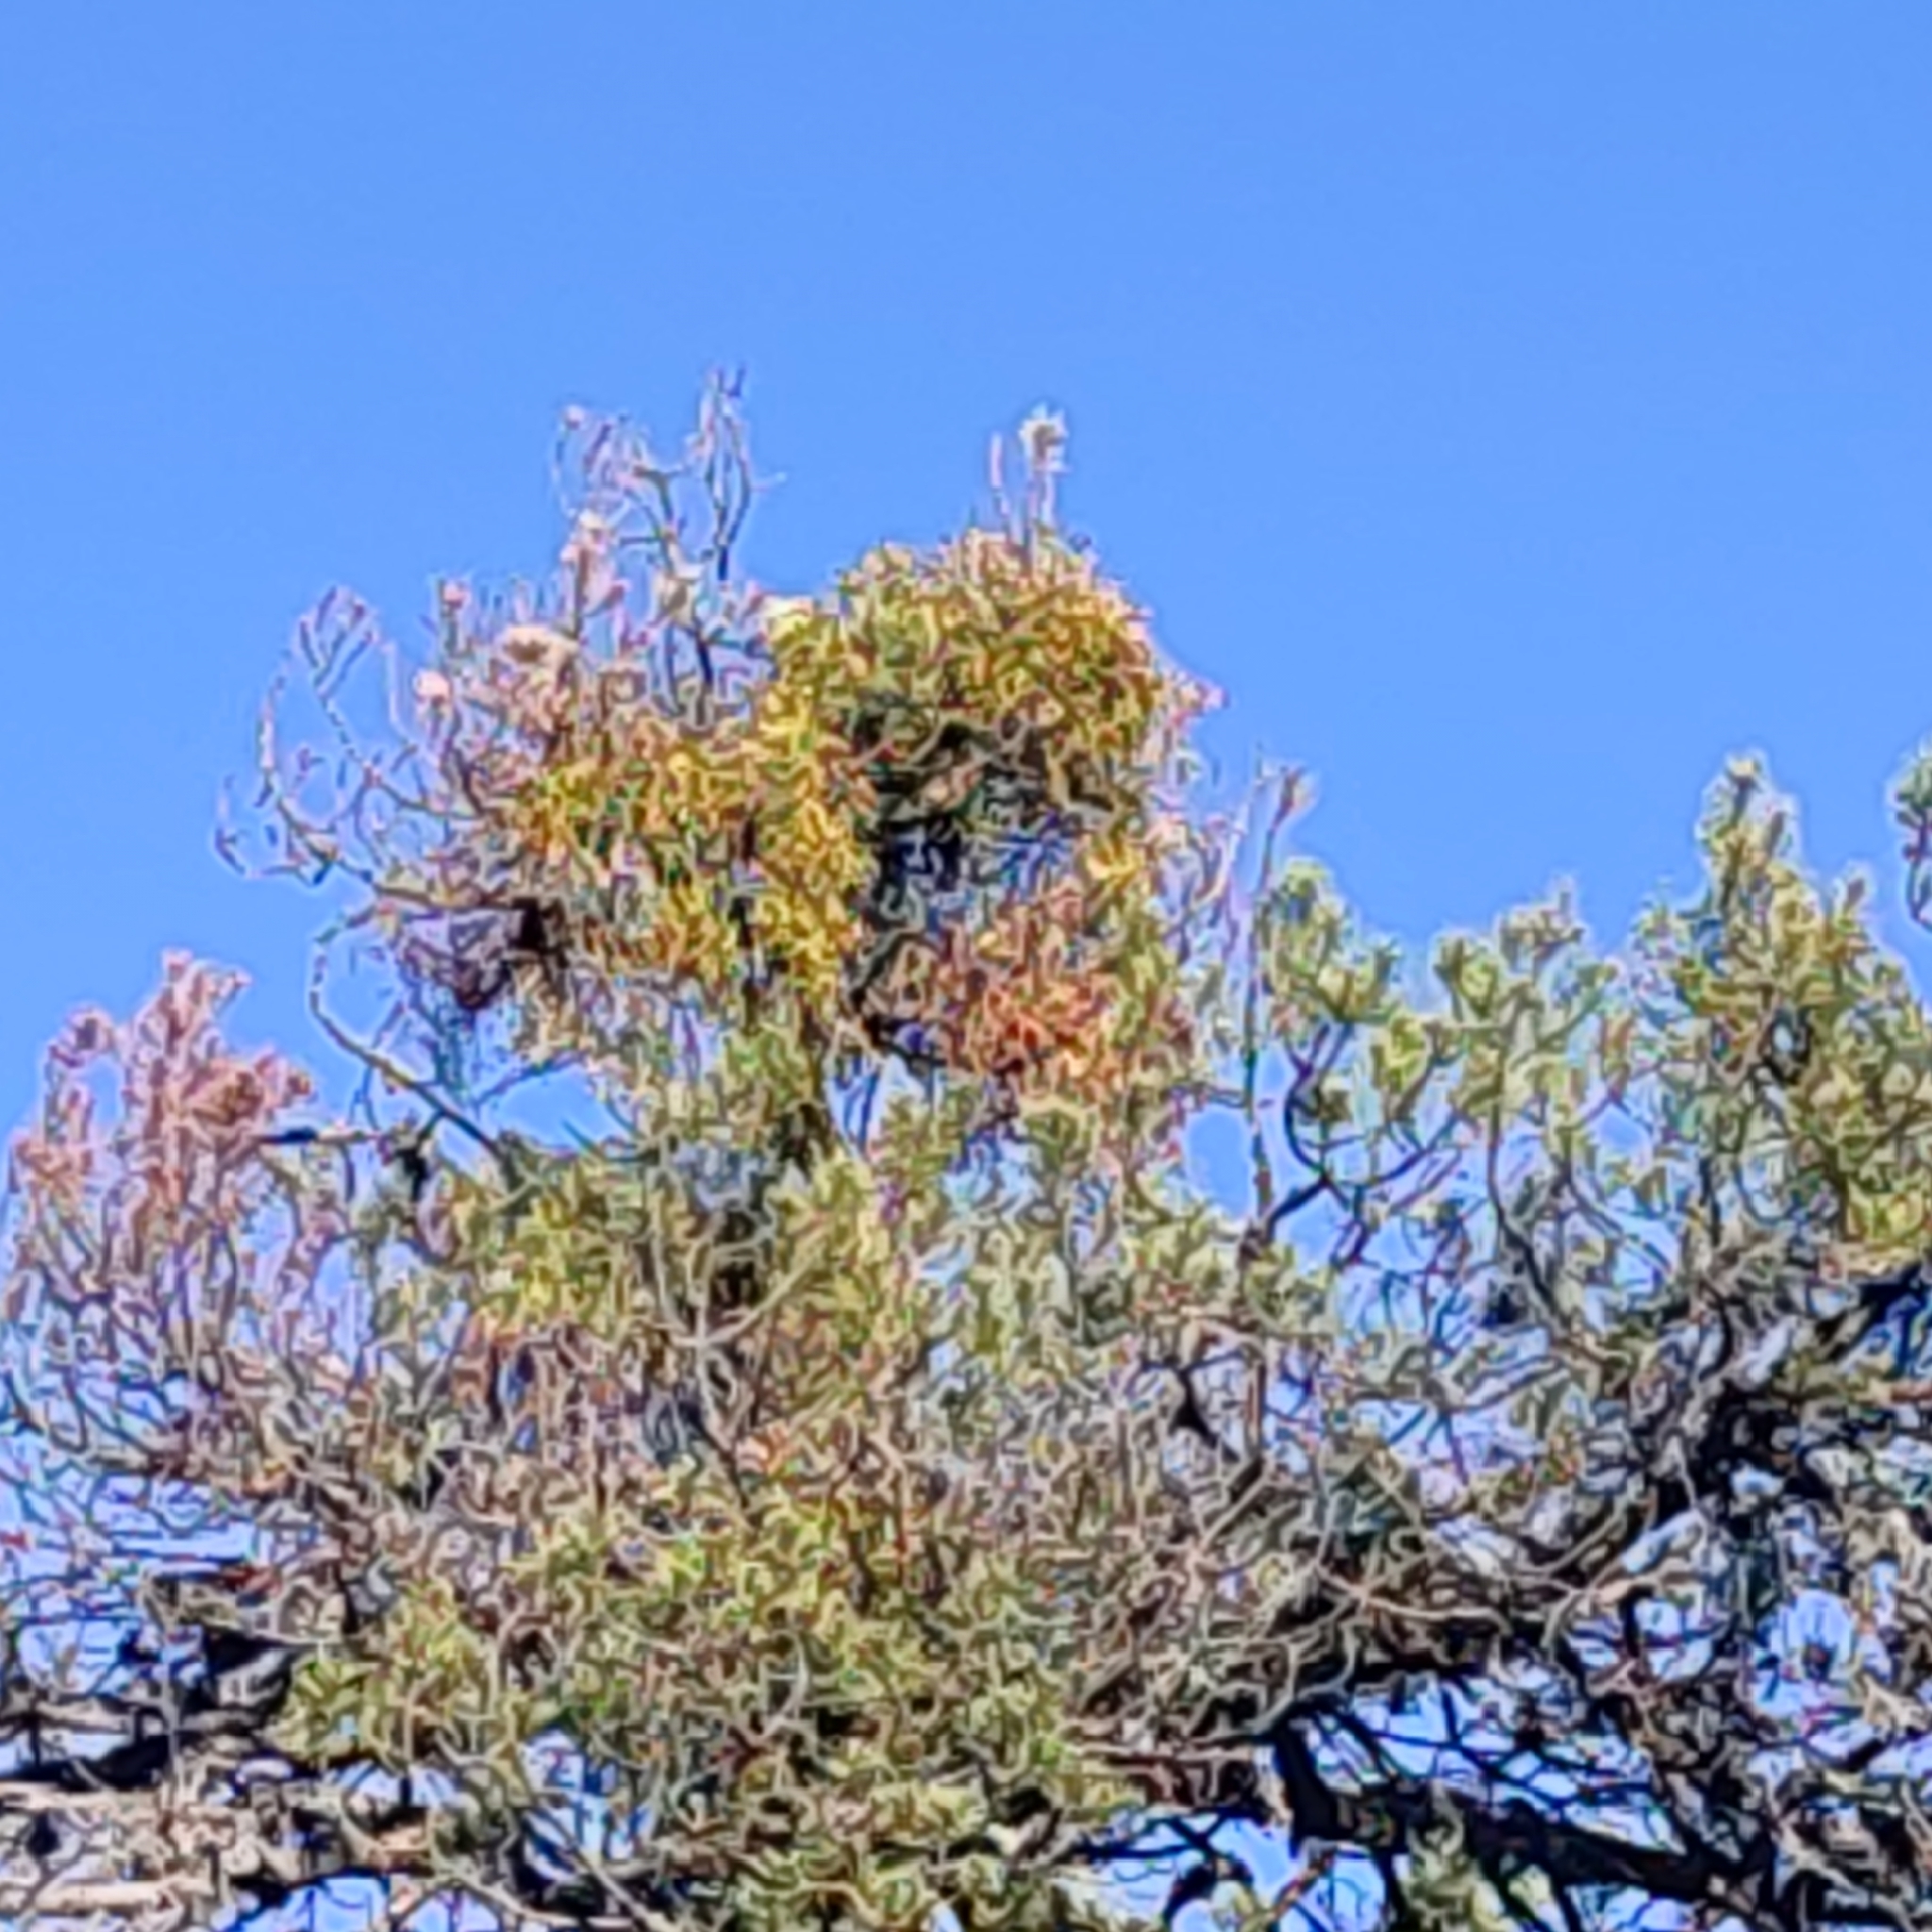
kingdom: Plantae
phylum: Tracheophyta
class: Magnoliopsida
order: Santalales
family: Viscaceae
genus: Viscum
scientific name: Viscum album
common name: Mistletoe
